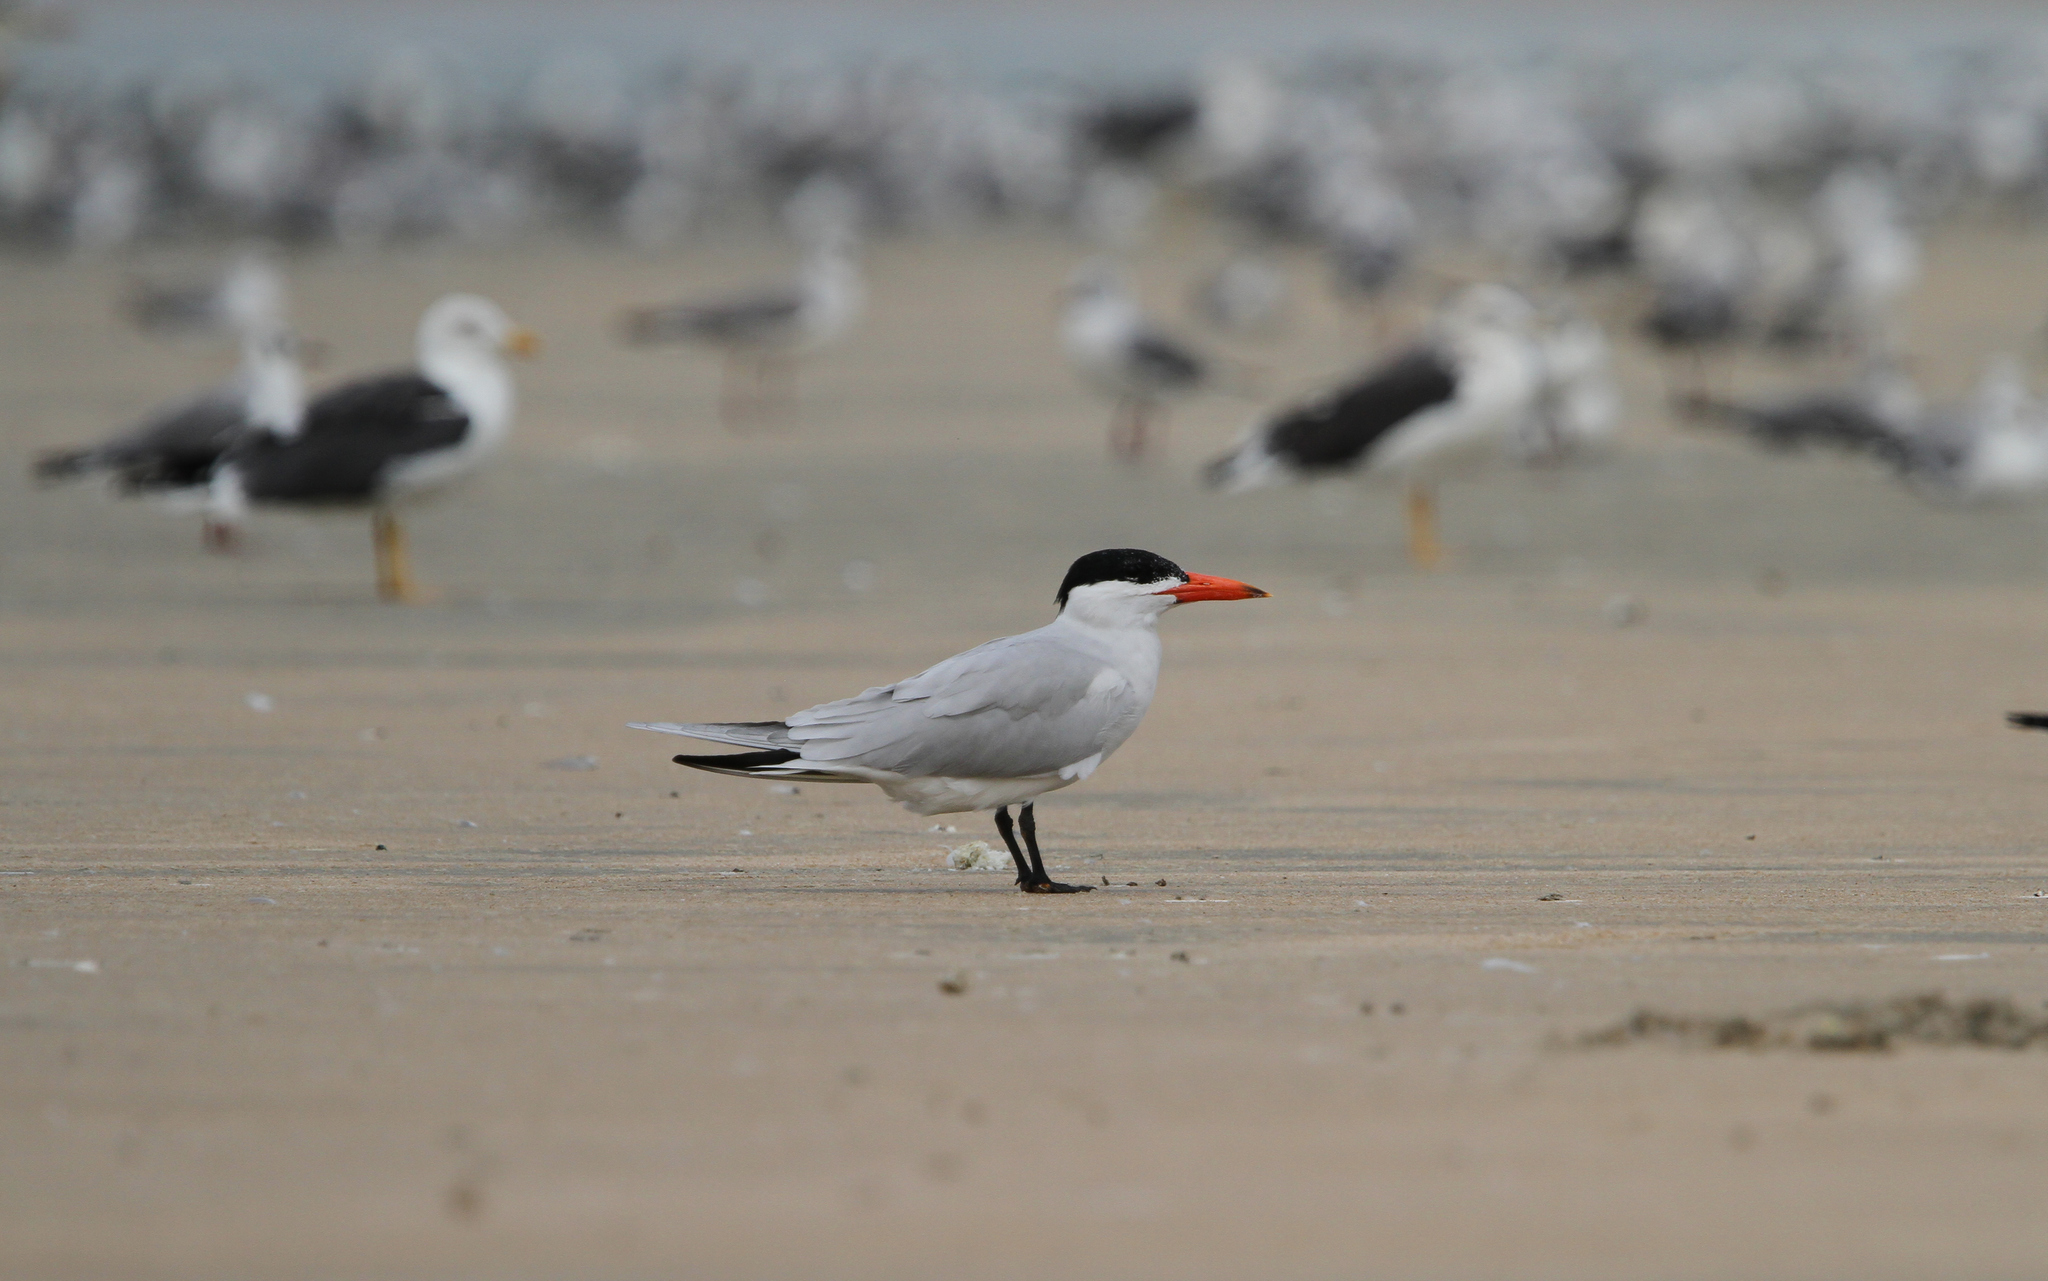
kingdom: Animalia
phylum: Chordata
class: Aves
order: Charadriiformes
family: Laridae
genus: Hydroprogne
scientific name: Hydroprogne caspia
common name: Caspian tern
